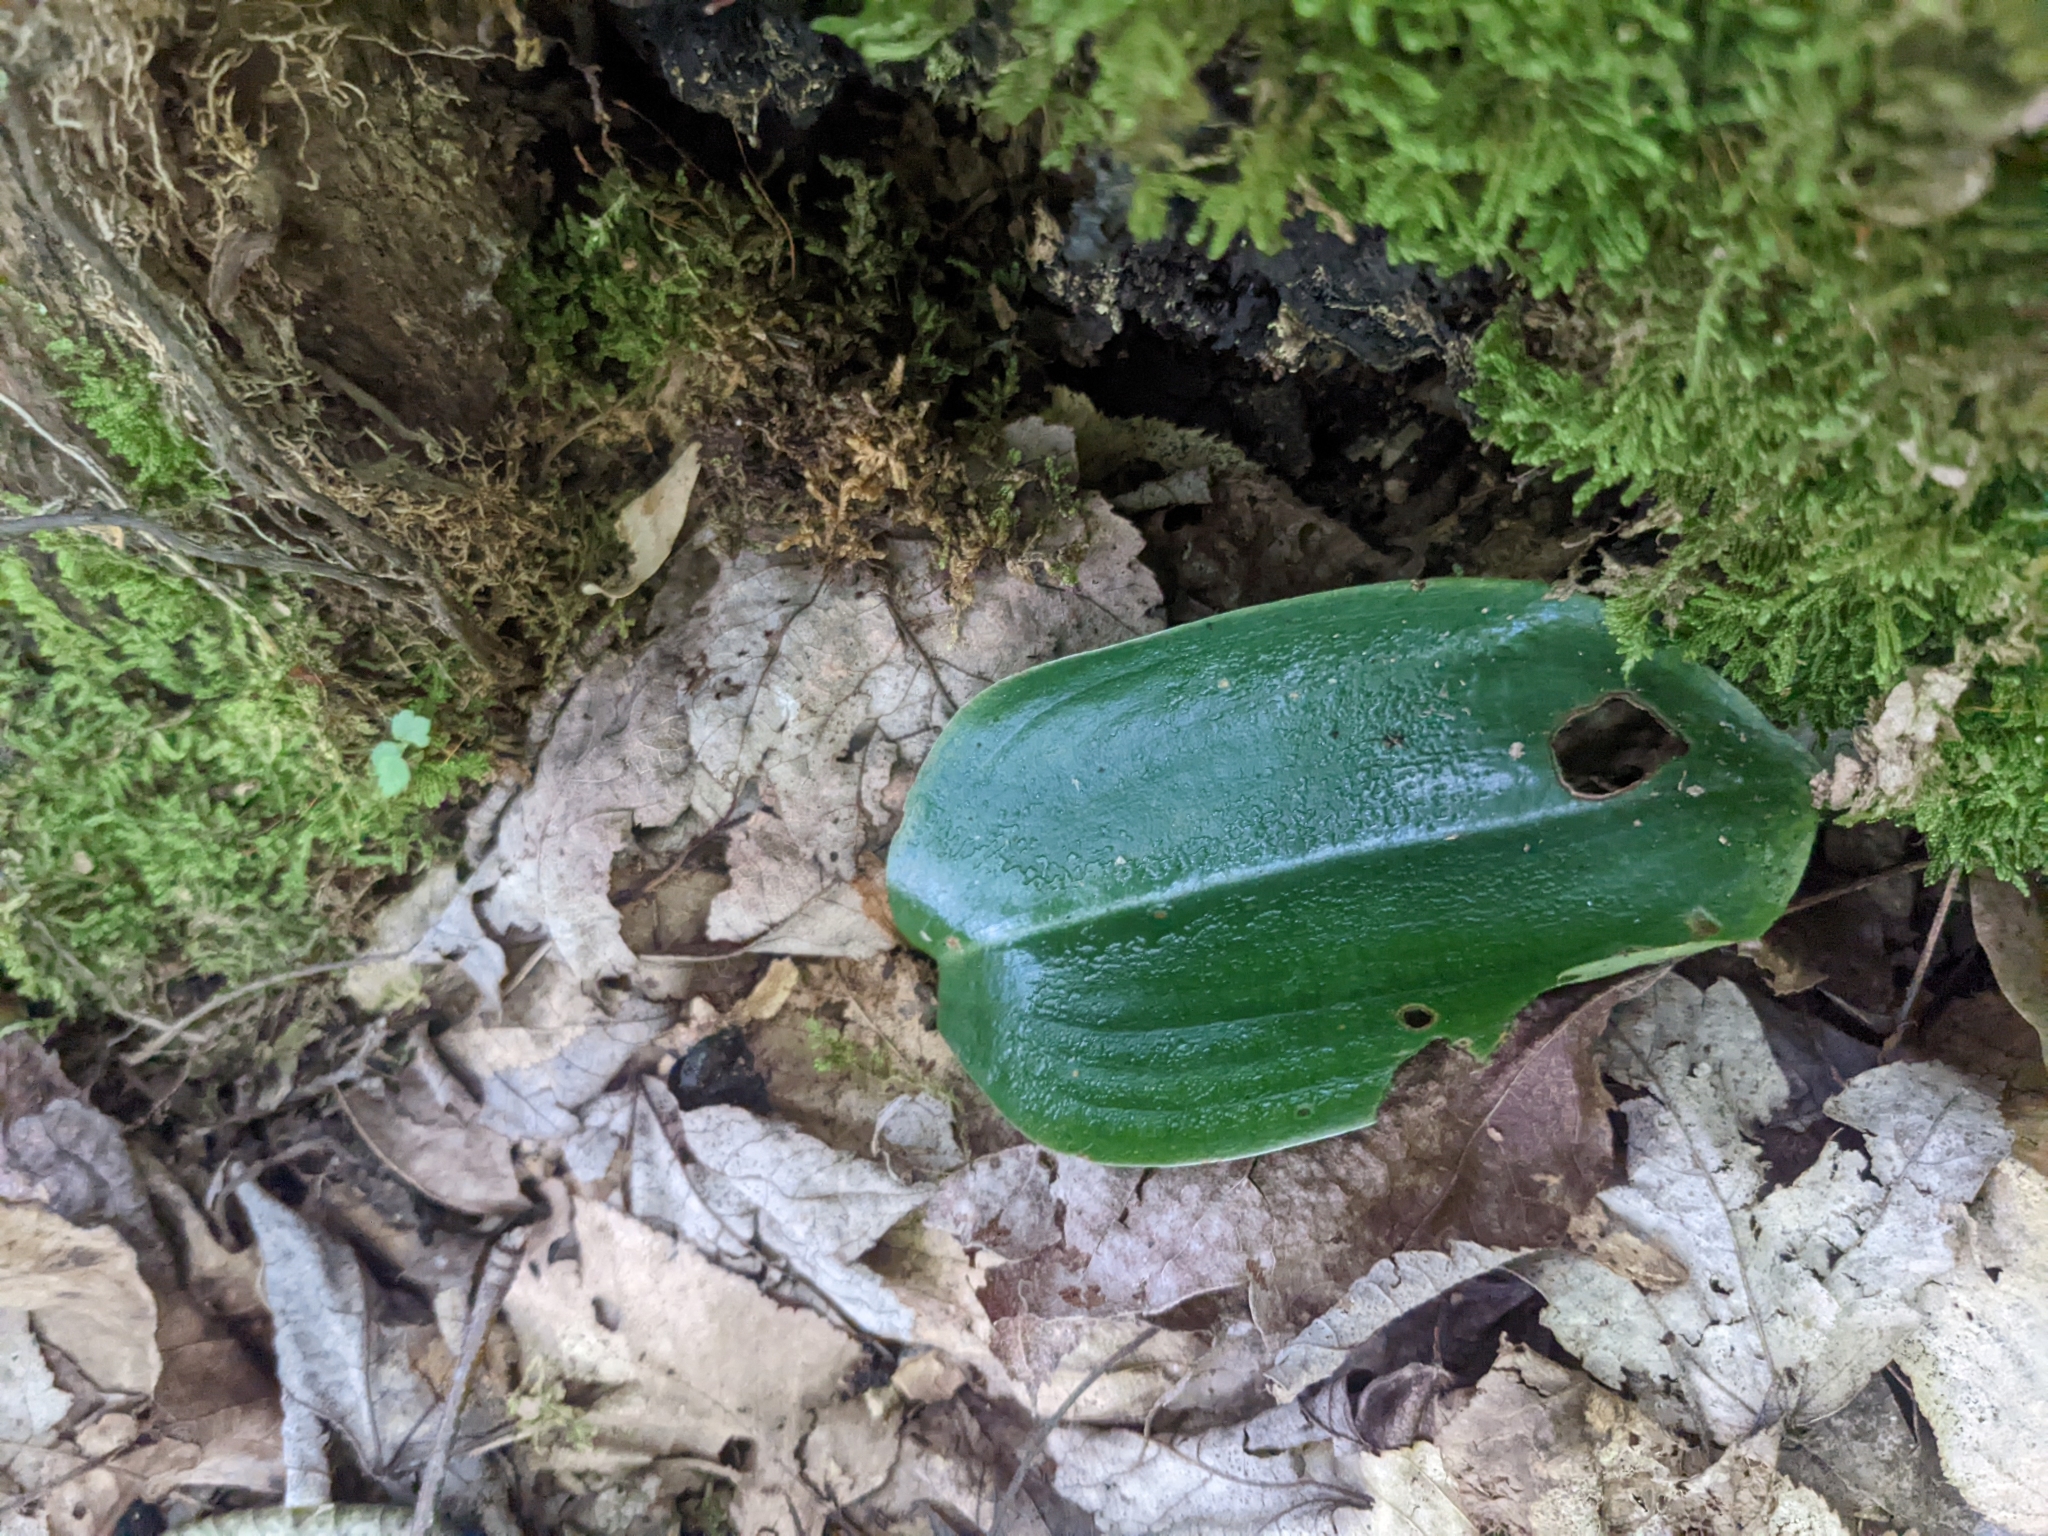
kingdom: Plantae
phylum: Tracheophyta
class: Liliopsida
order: Asparagales
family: Orchidaceae
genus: Platanthera
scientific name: Platanthera orbiculata
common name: Large round-leaved orchid
